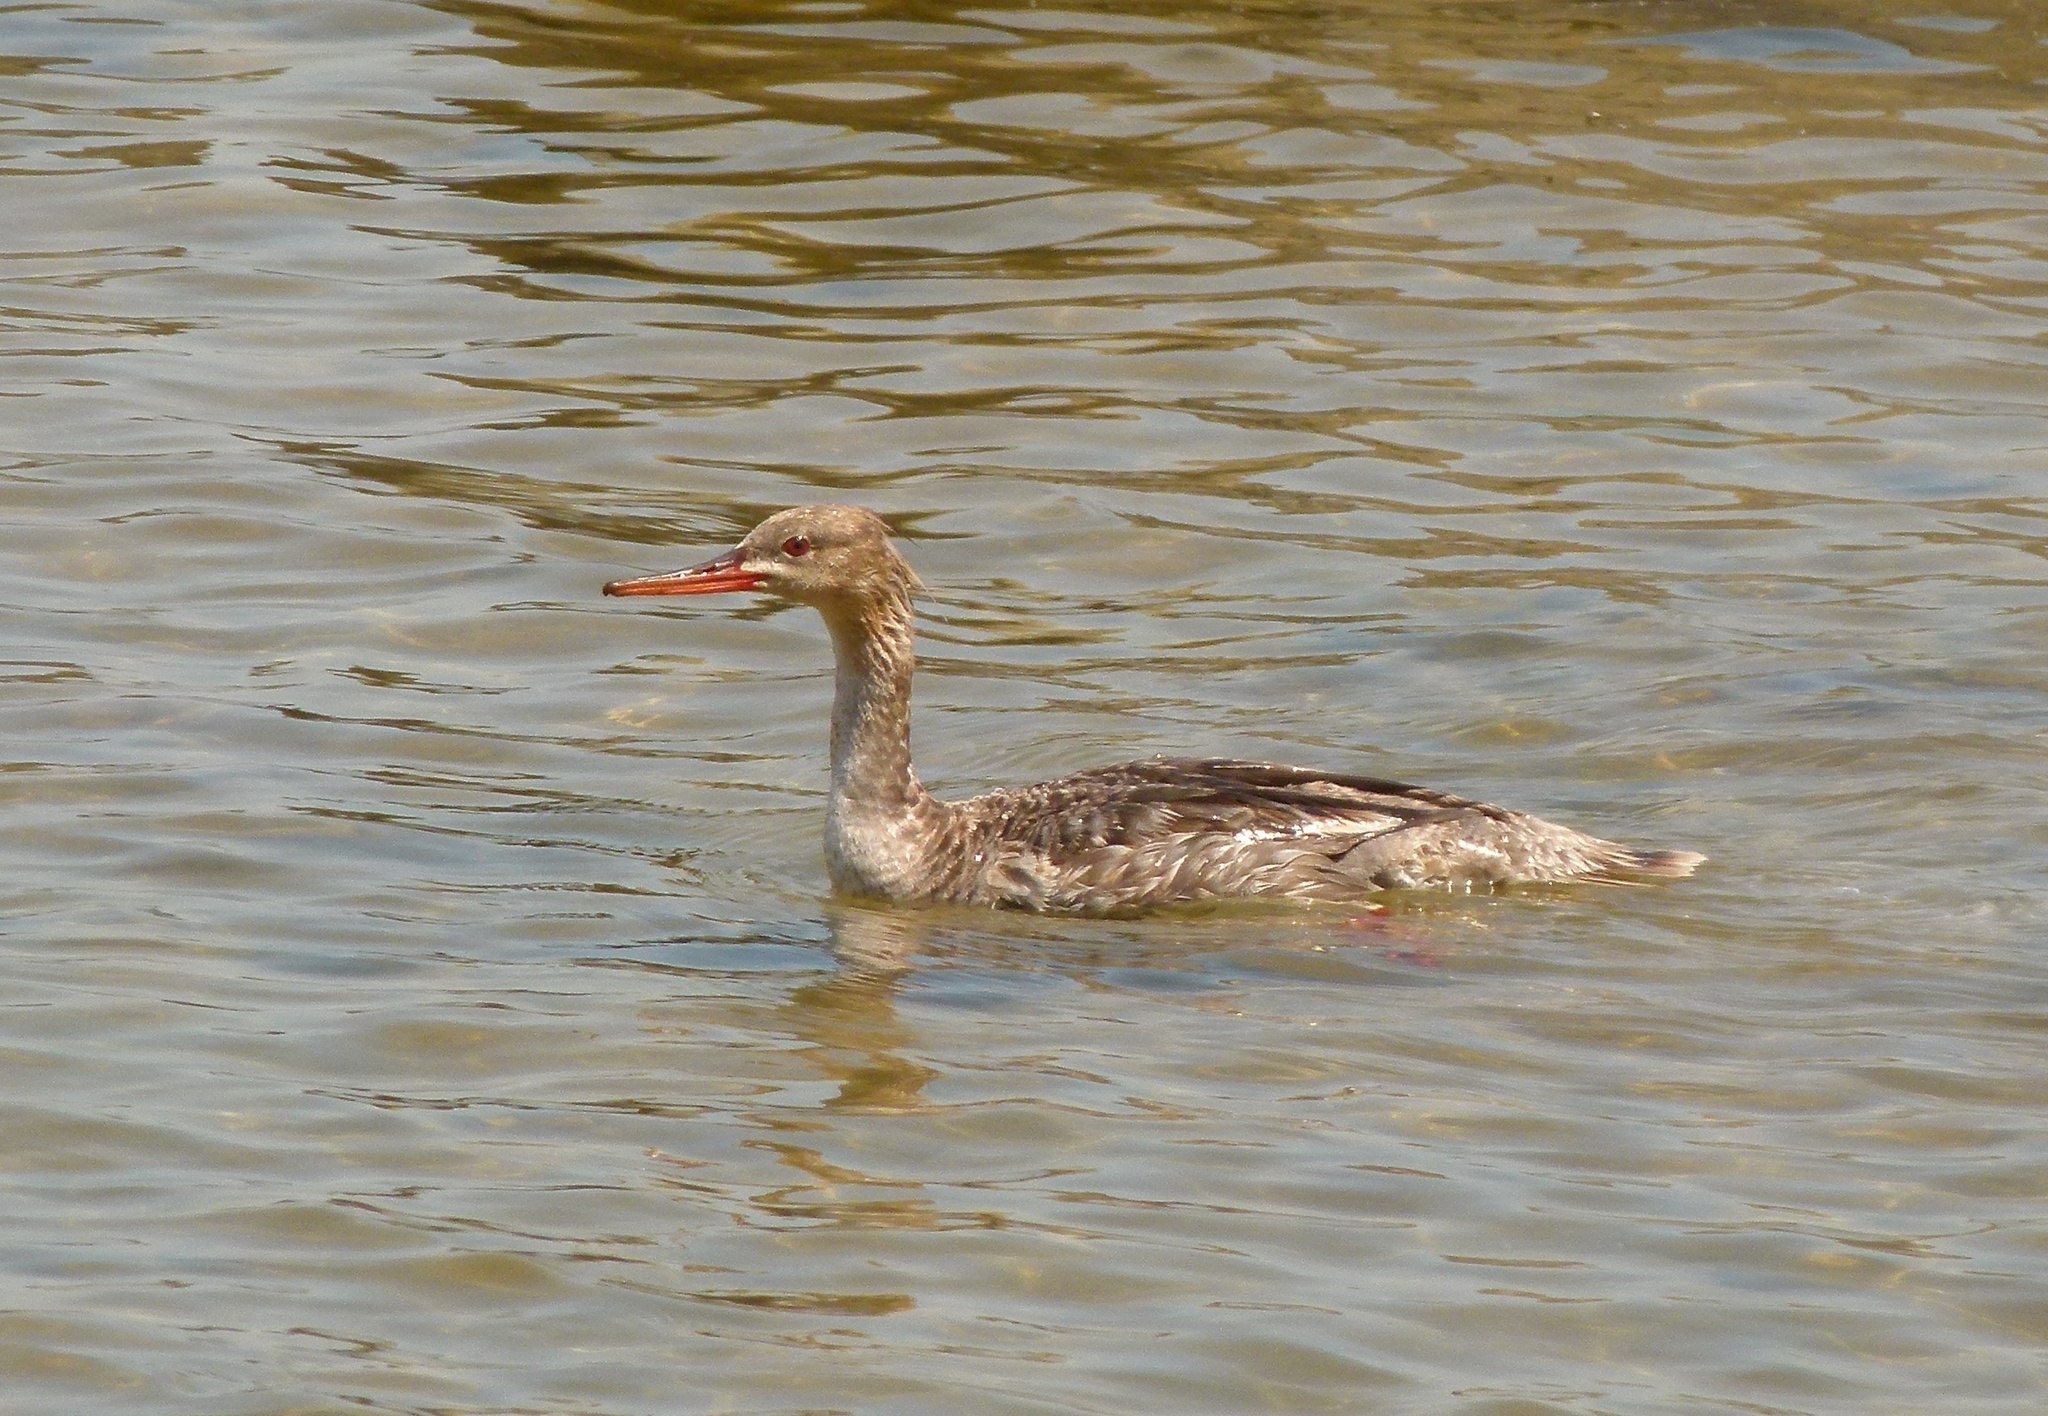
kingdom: Animalia
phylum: Chordata
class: Aves
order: Anseriformes
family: Anatidae
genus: Mergus
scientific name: Mergus serrator
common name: Red-breasted merganser
